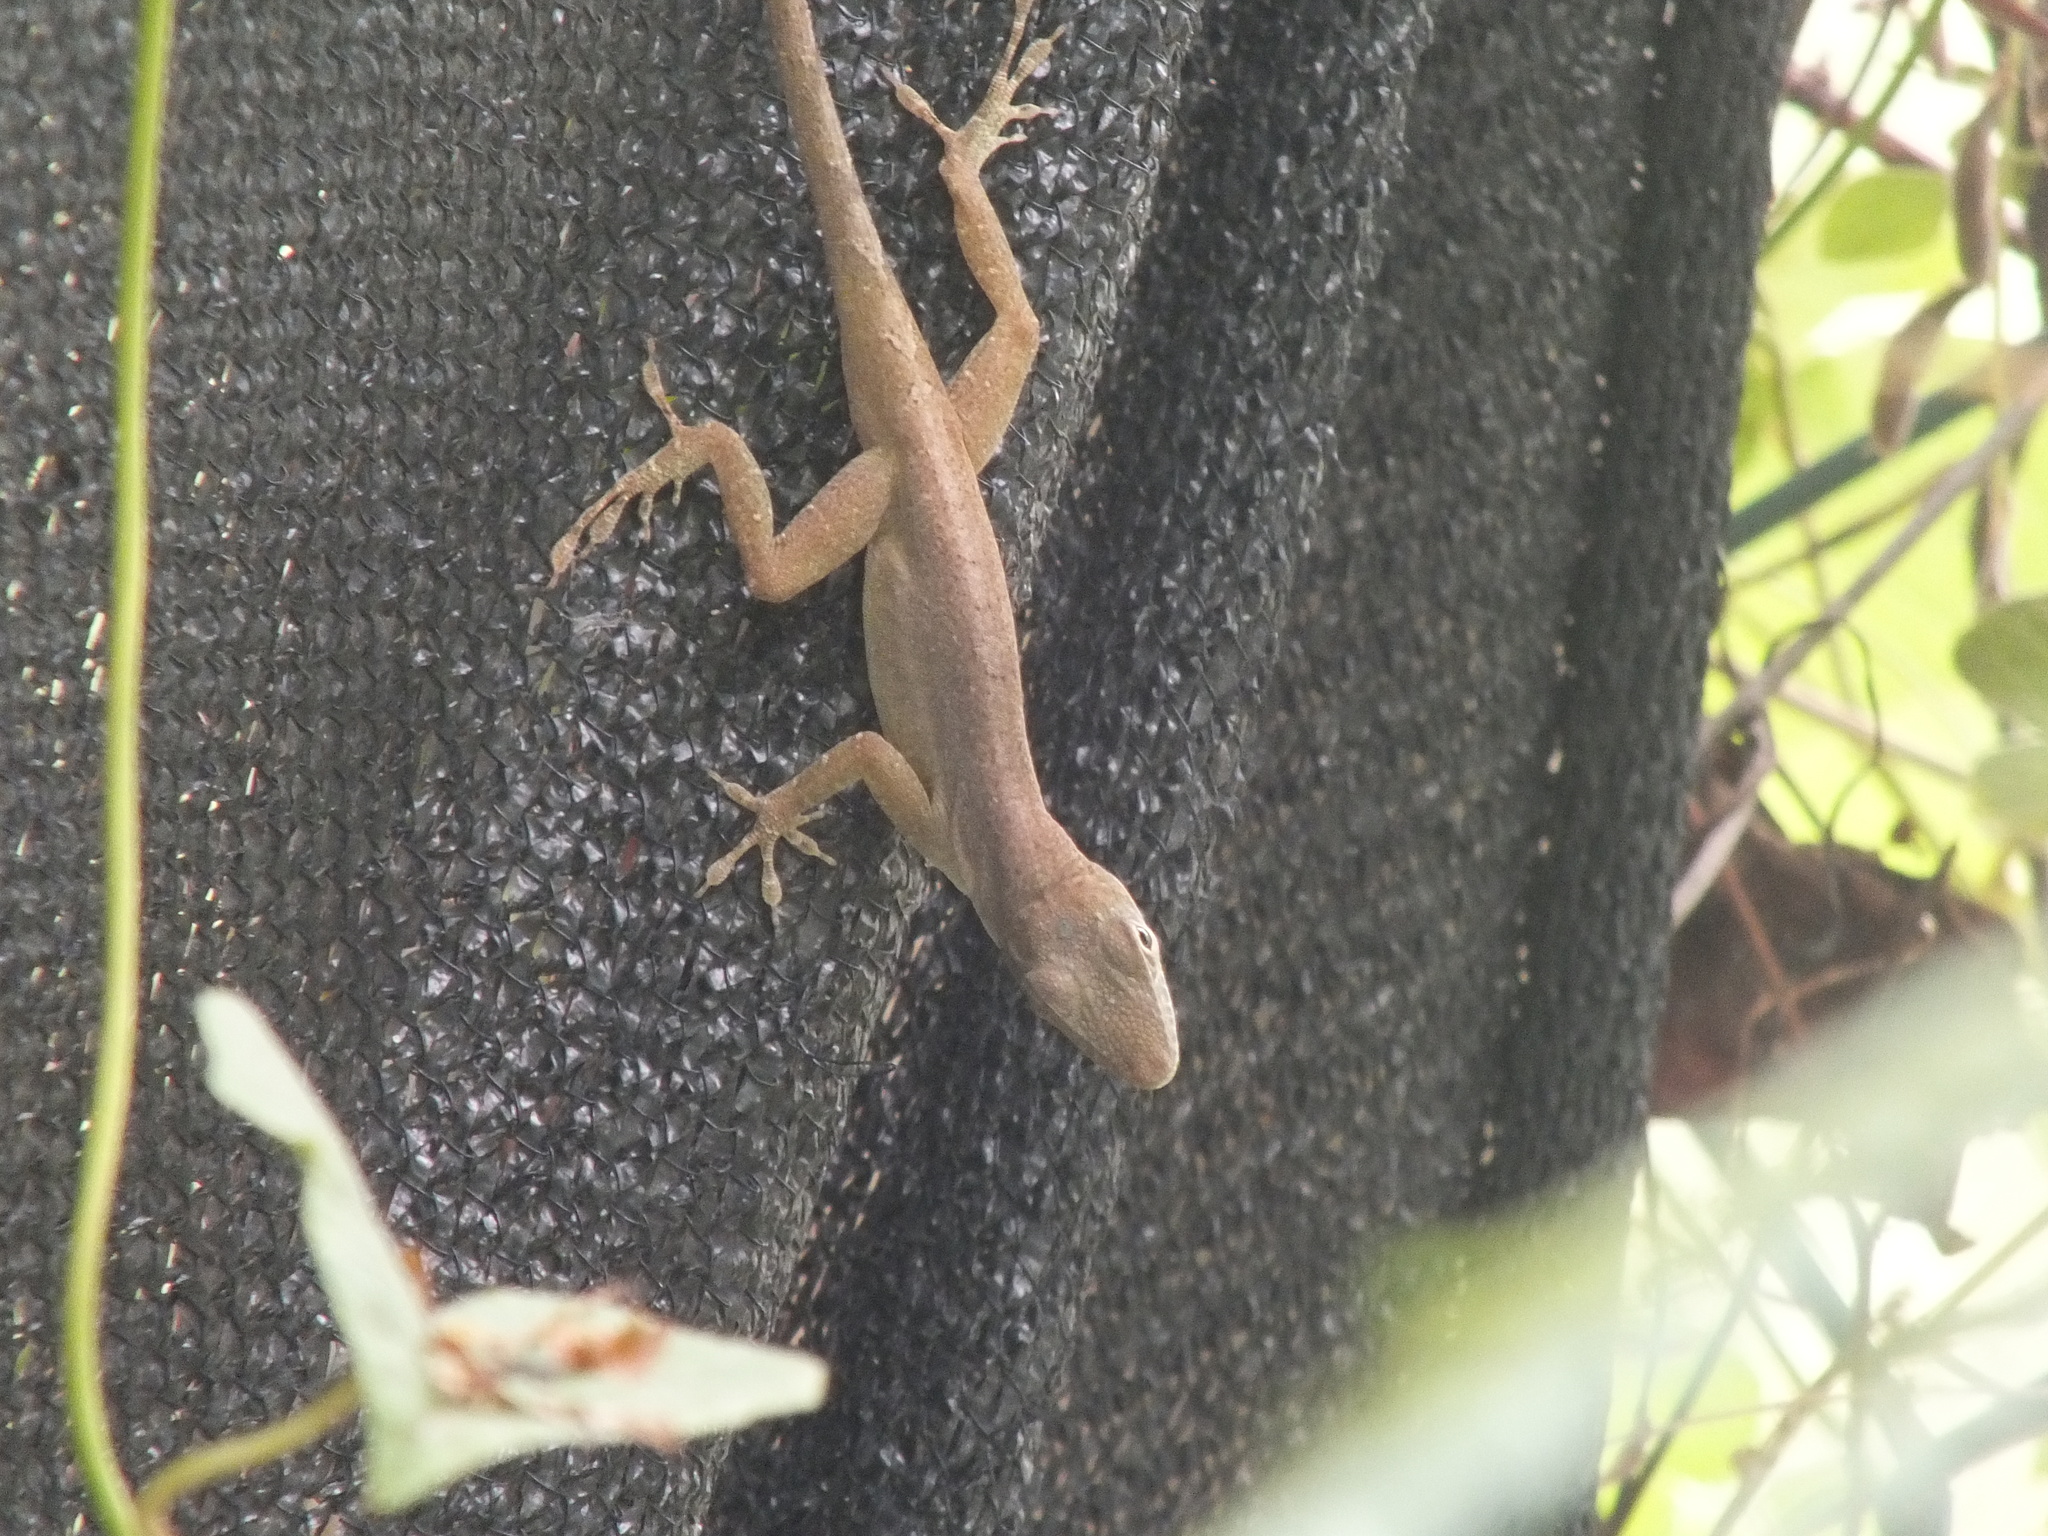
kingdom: Animalia
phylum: Chordata
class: Squamata
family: Dactyloidae
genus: Anolis
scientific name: Anolis grahami
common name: Graham's anole
